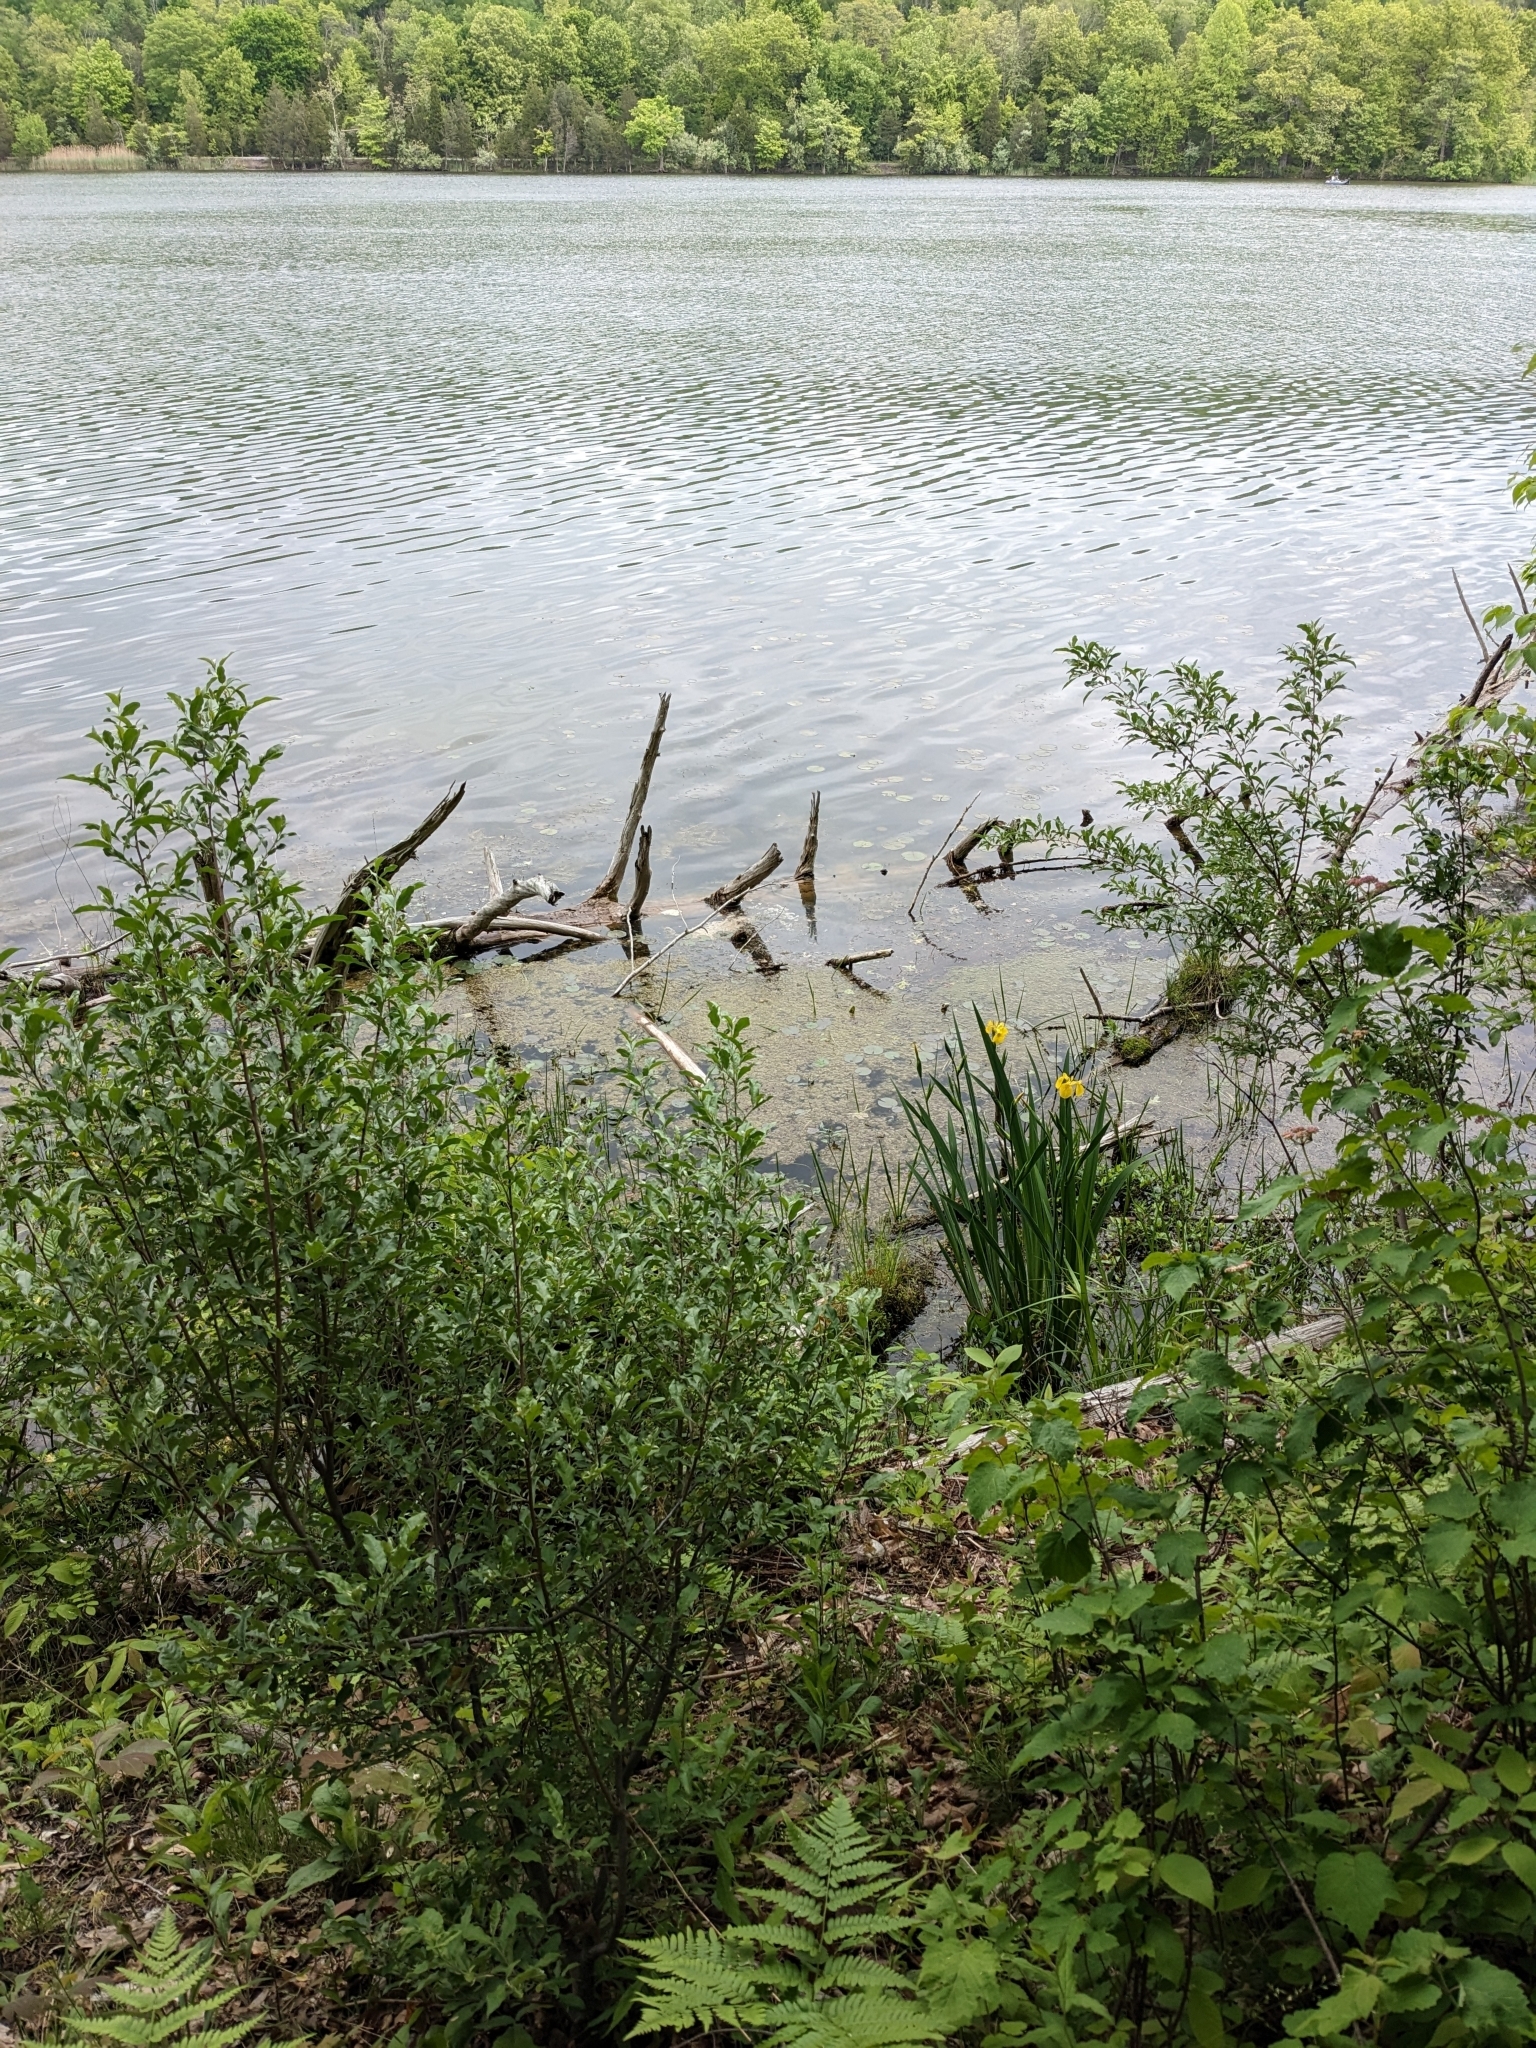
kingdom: Plantae
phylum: Tracheophyta
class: Liliopsida
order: Asparagales
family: Iridaceae
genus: Iris
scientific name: Iris pseudacorus
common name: Yellow flag
